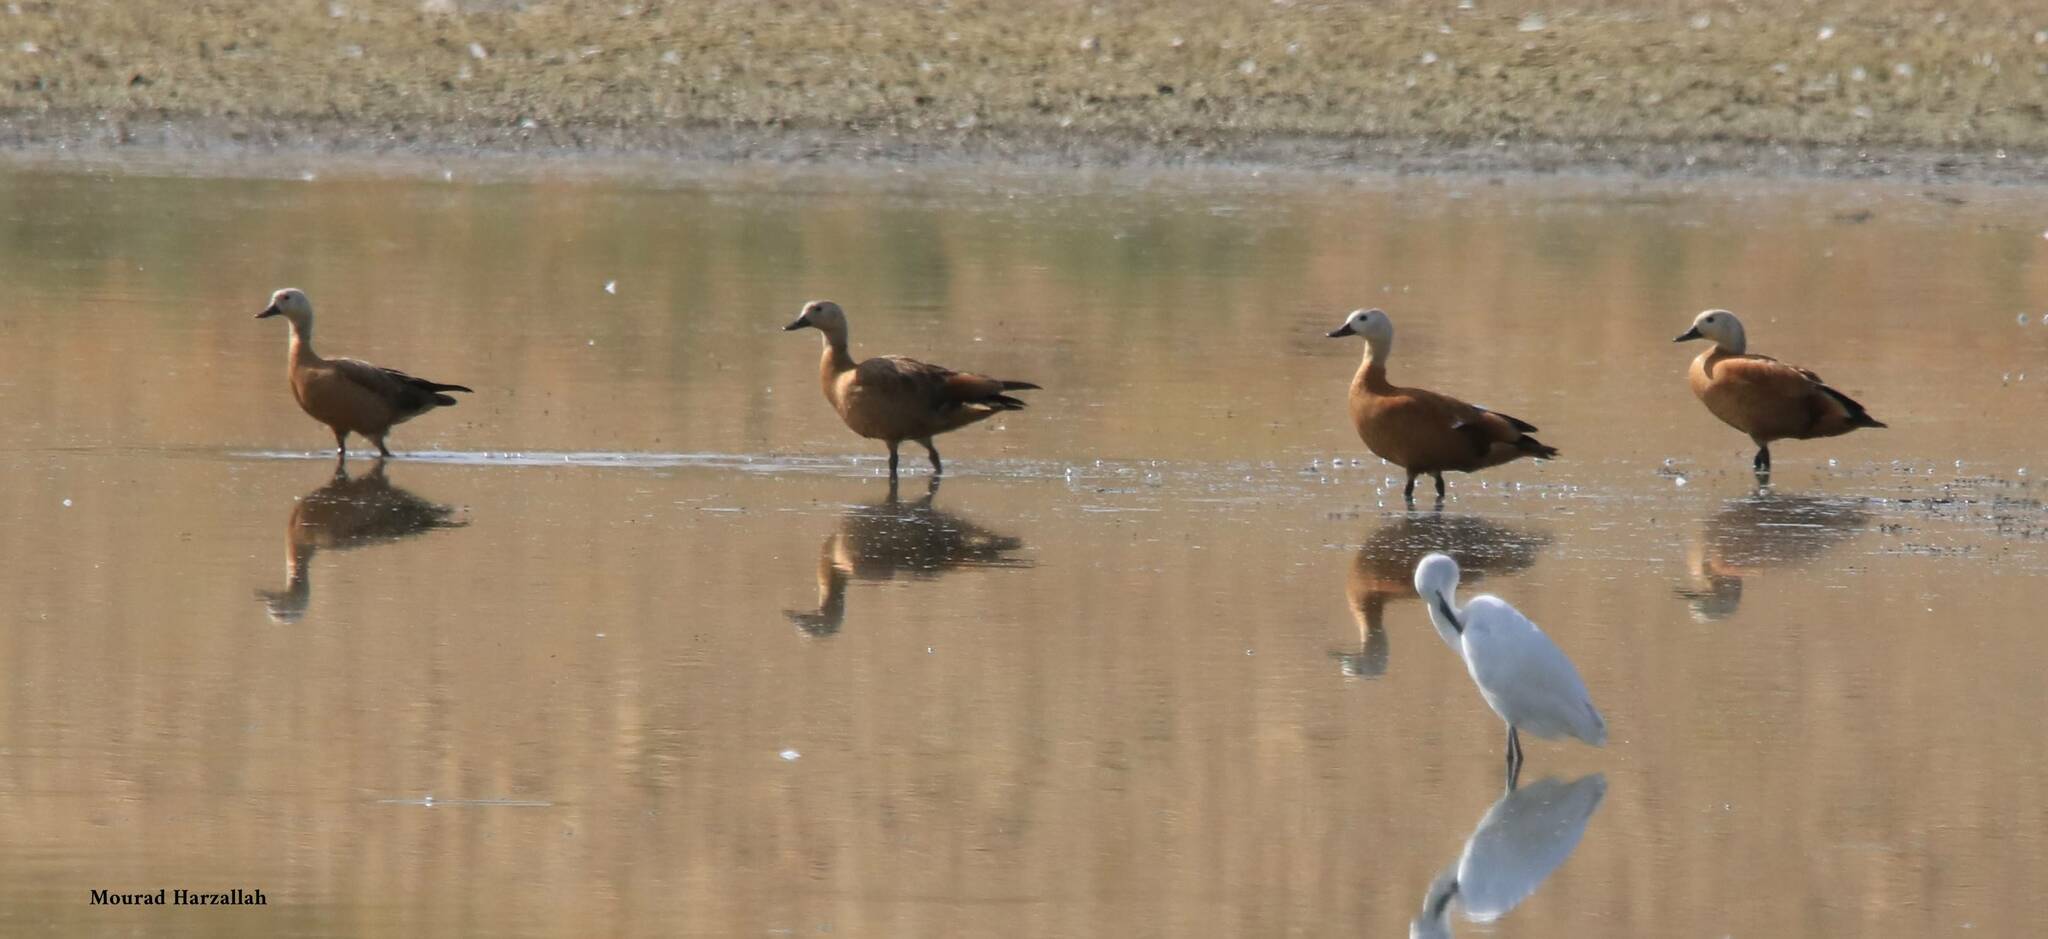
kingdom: Animalia
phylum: Chordata
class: Aves
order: Anseriformes
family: Anatidae
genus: Tadorna
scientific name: Tadorna ferruginea
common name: Ruddy shelduck
